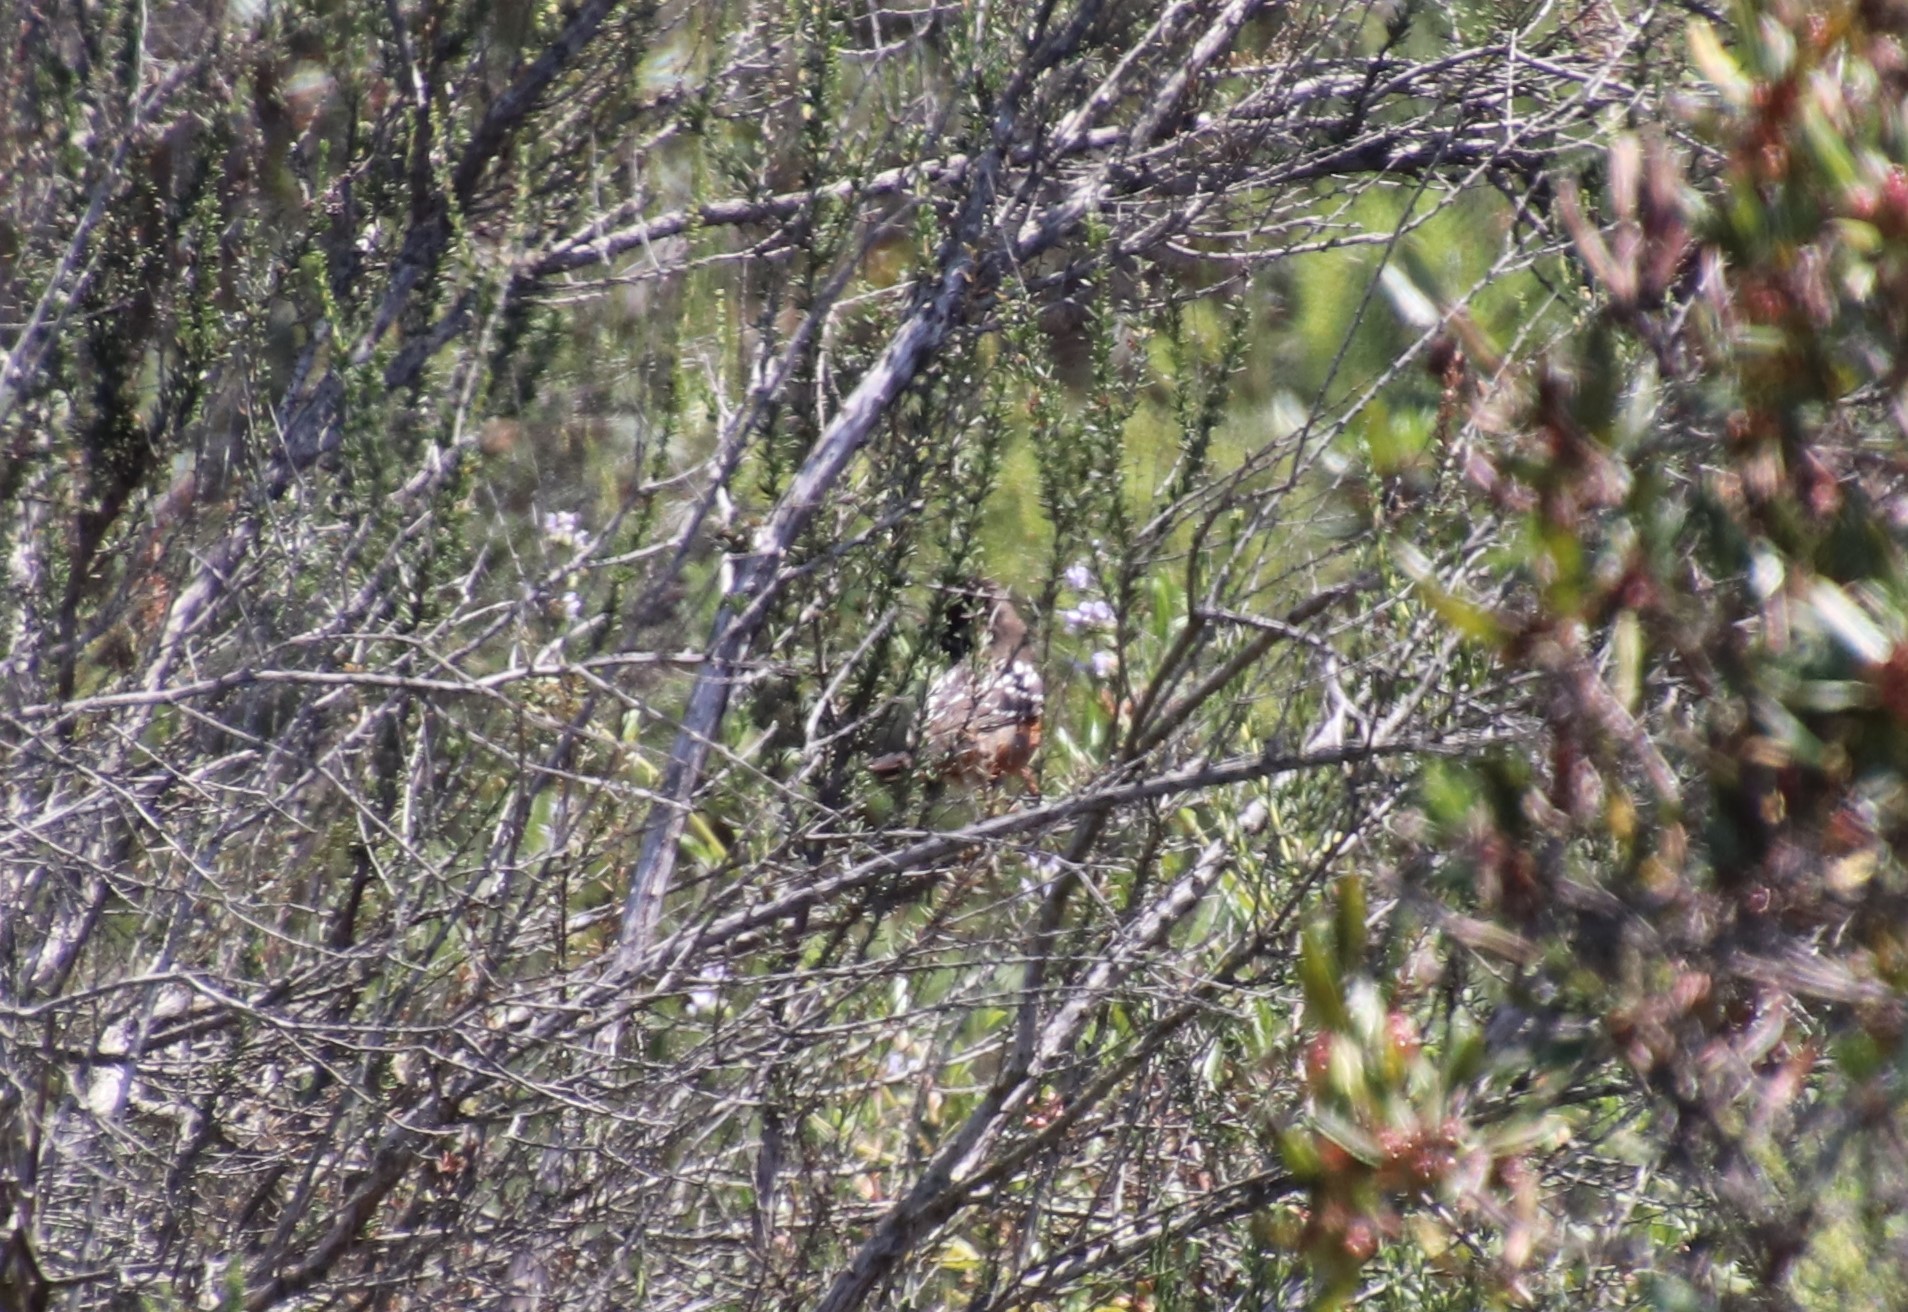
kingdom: Animalia
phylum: Chordata
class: Aves
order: Passeriformes
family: Passerellidae
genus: Pipilo
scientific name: Pipilo maculatus
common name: Spotted towhee
